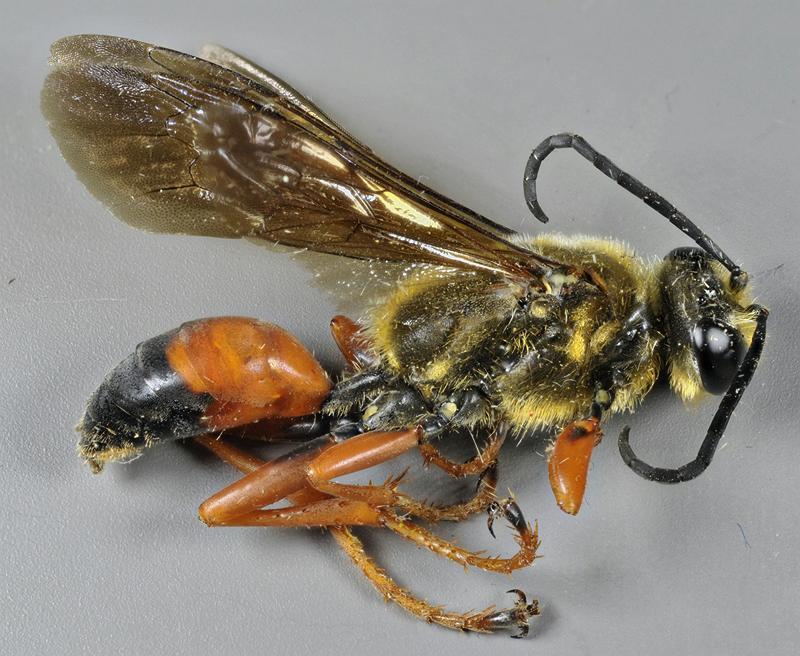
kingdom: Animalia
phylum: Arthropoda
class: Insecta
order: Hymenoptera
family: Sphecidae
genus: Sphex
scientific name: Sphex ichneumoneus
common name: Great golden digger wasp
